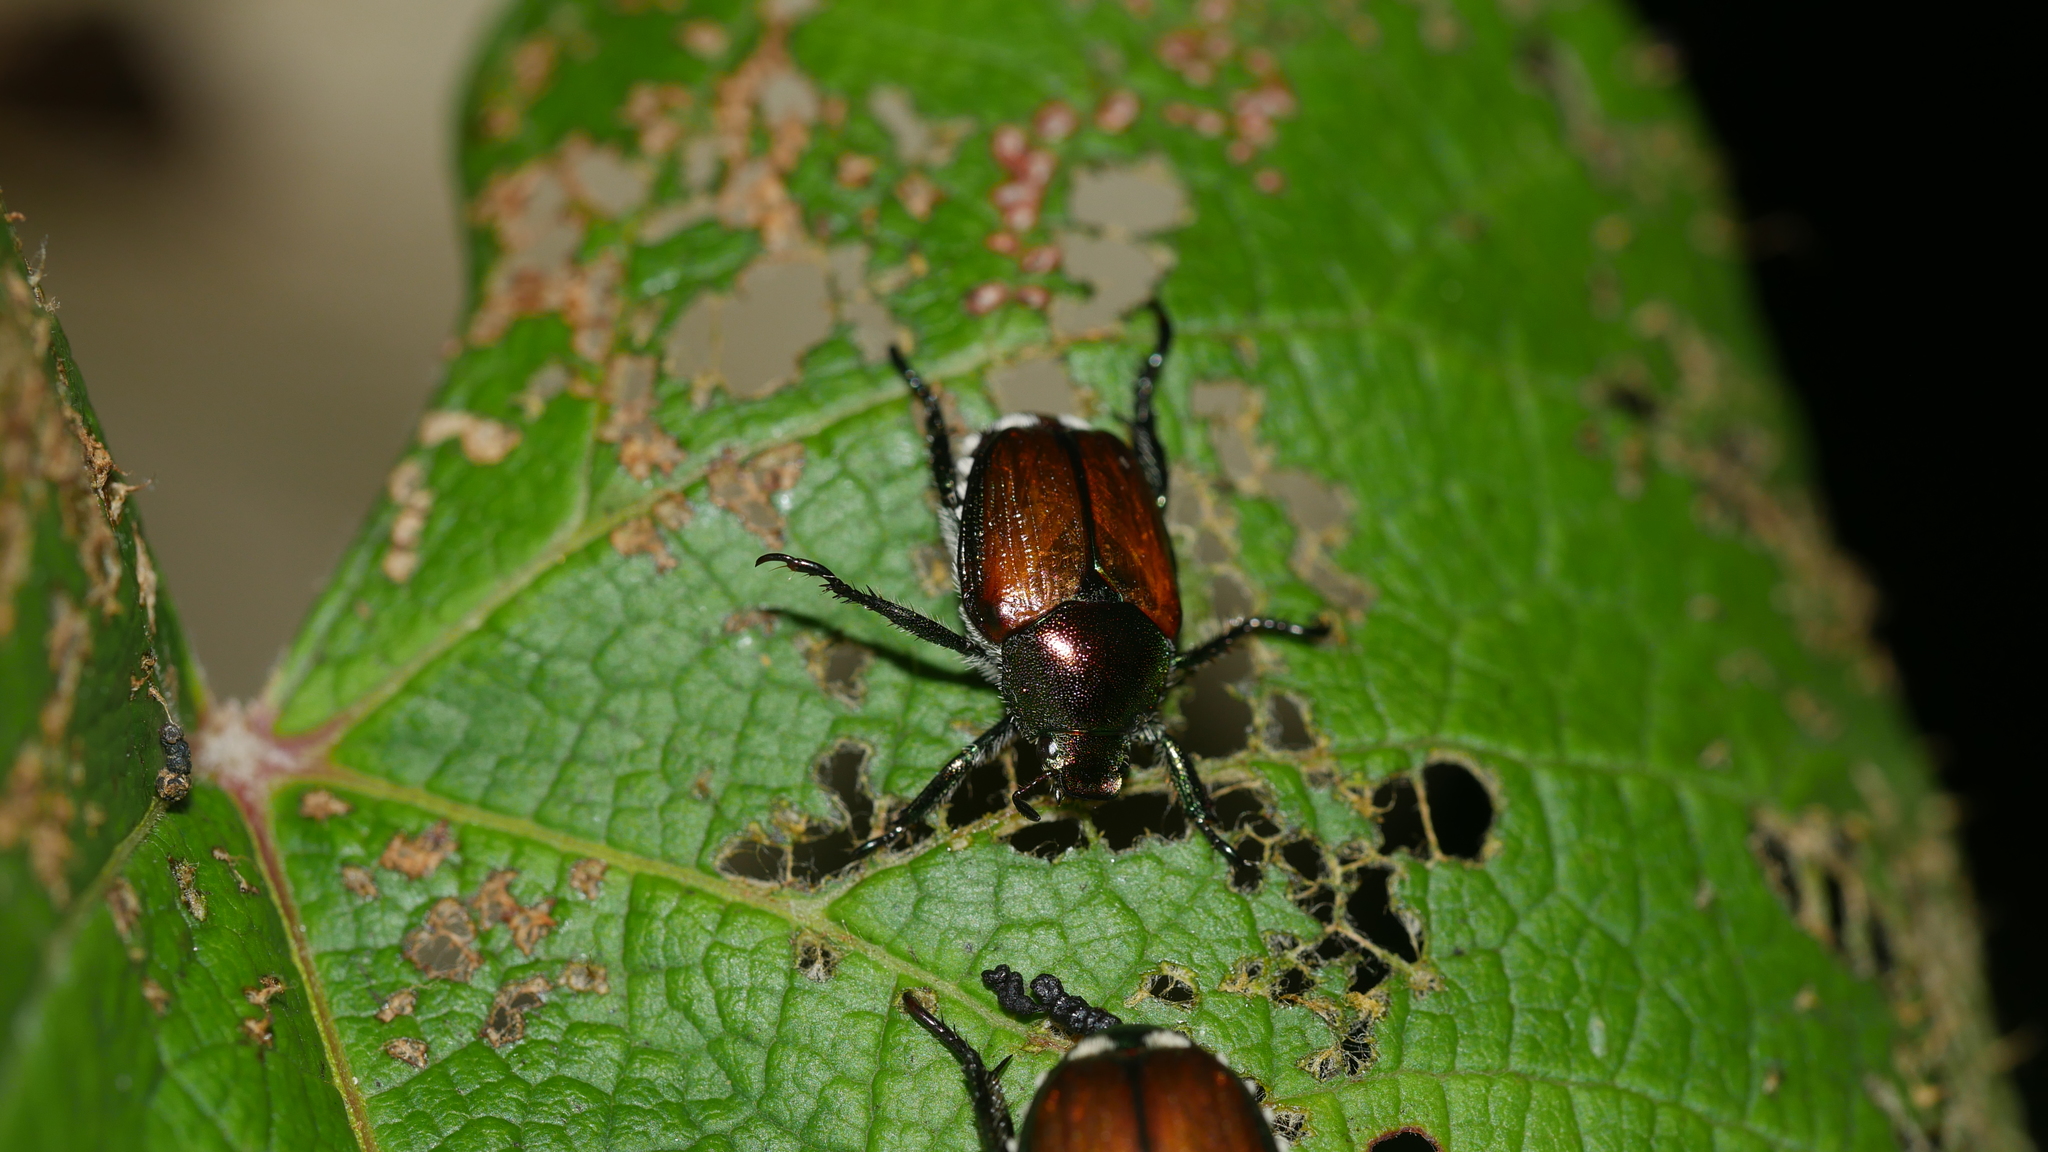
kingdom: Animalia
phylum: Arthropoda
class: Insecta
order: Coleoptera
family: Scarabaeidae
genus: Popillia
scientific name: Popillia japonica
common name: Japanese beetle
